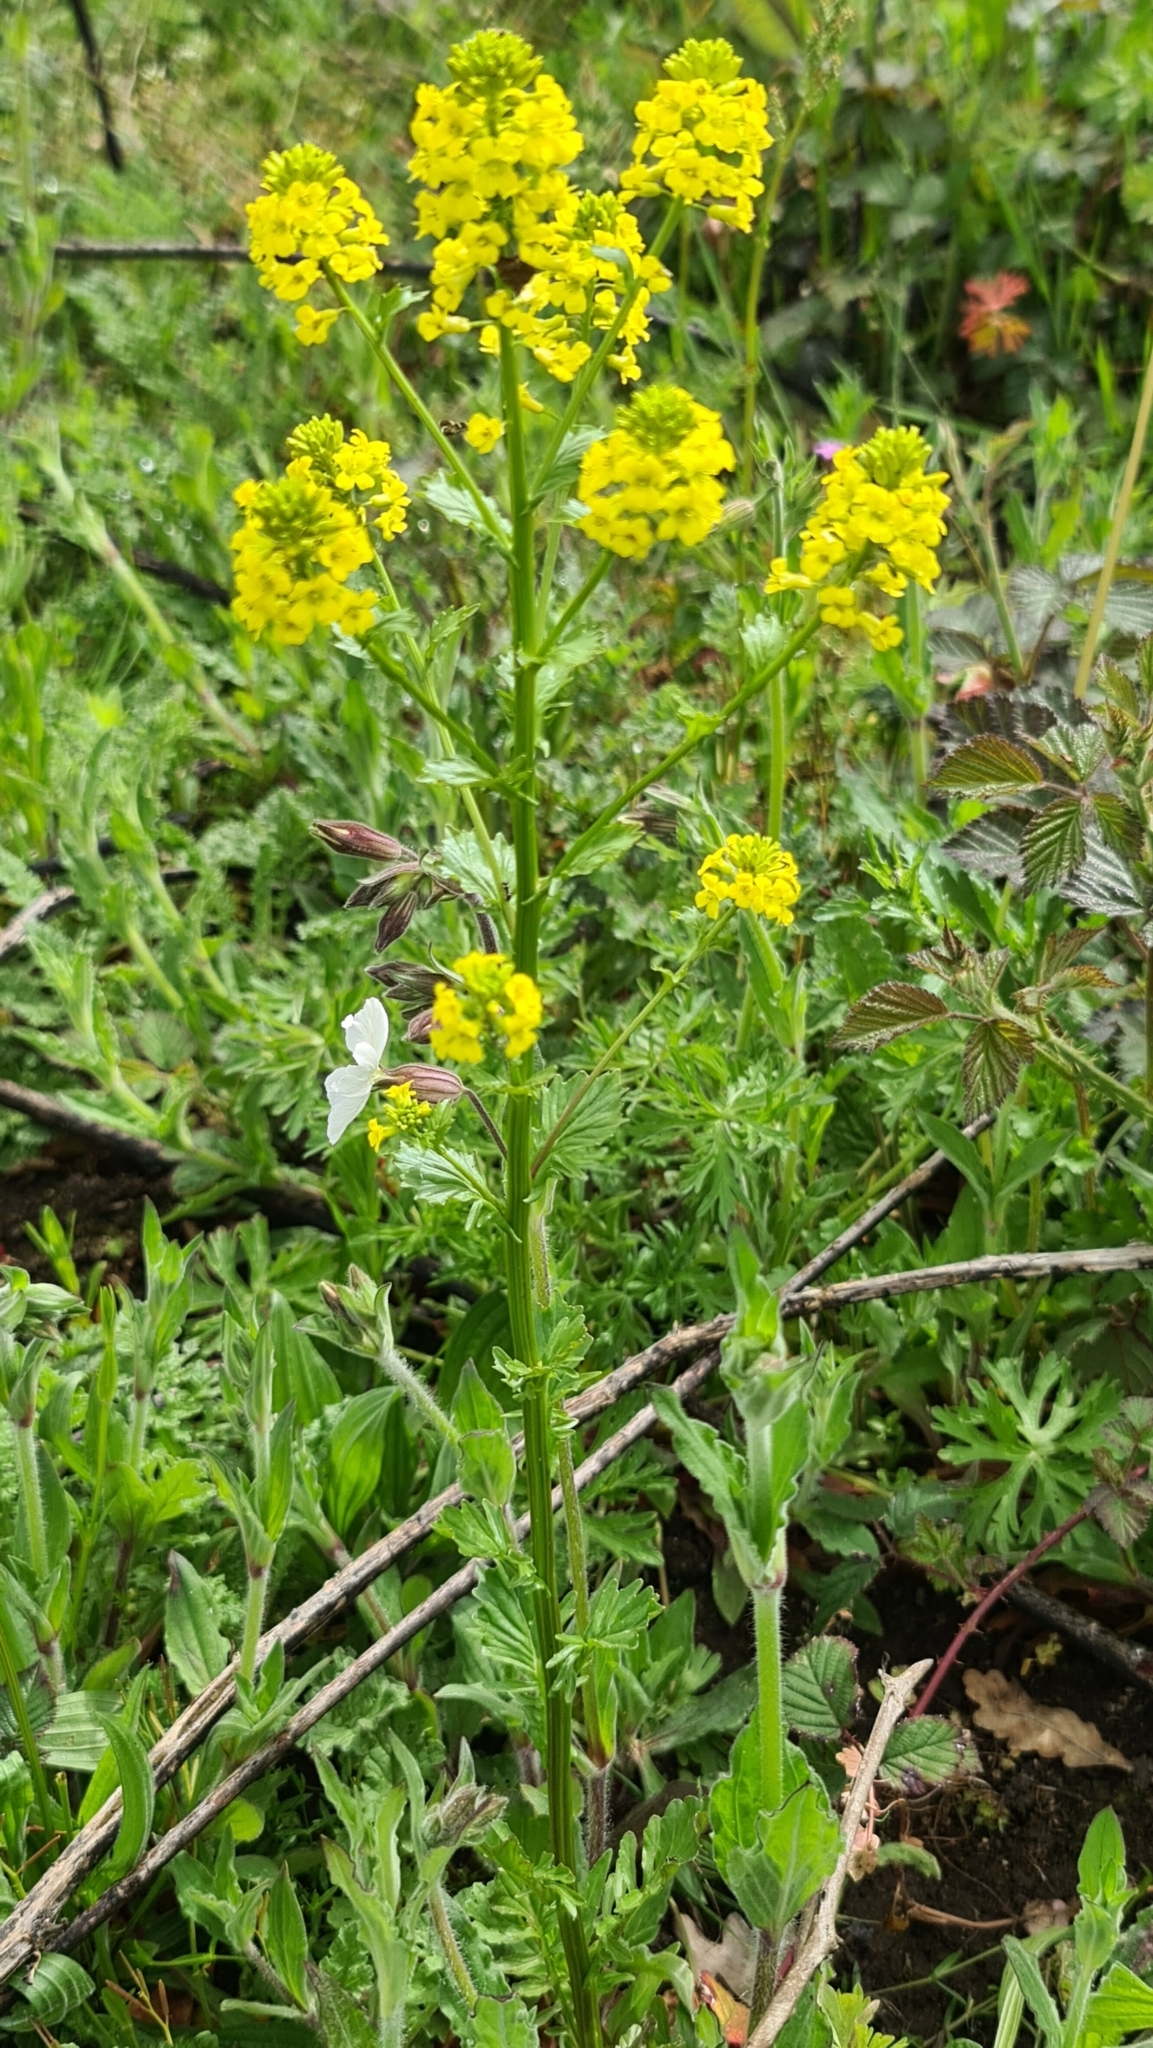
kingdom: Plantae
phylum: Tracheophyta
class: Magnoliopsida
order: Brassicales
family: Brassicaceae
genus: Barbarea
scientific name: Barbarea vulgaris
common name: Cressy-greens
